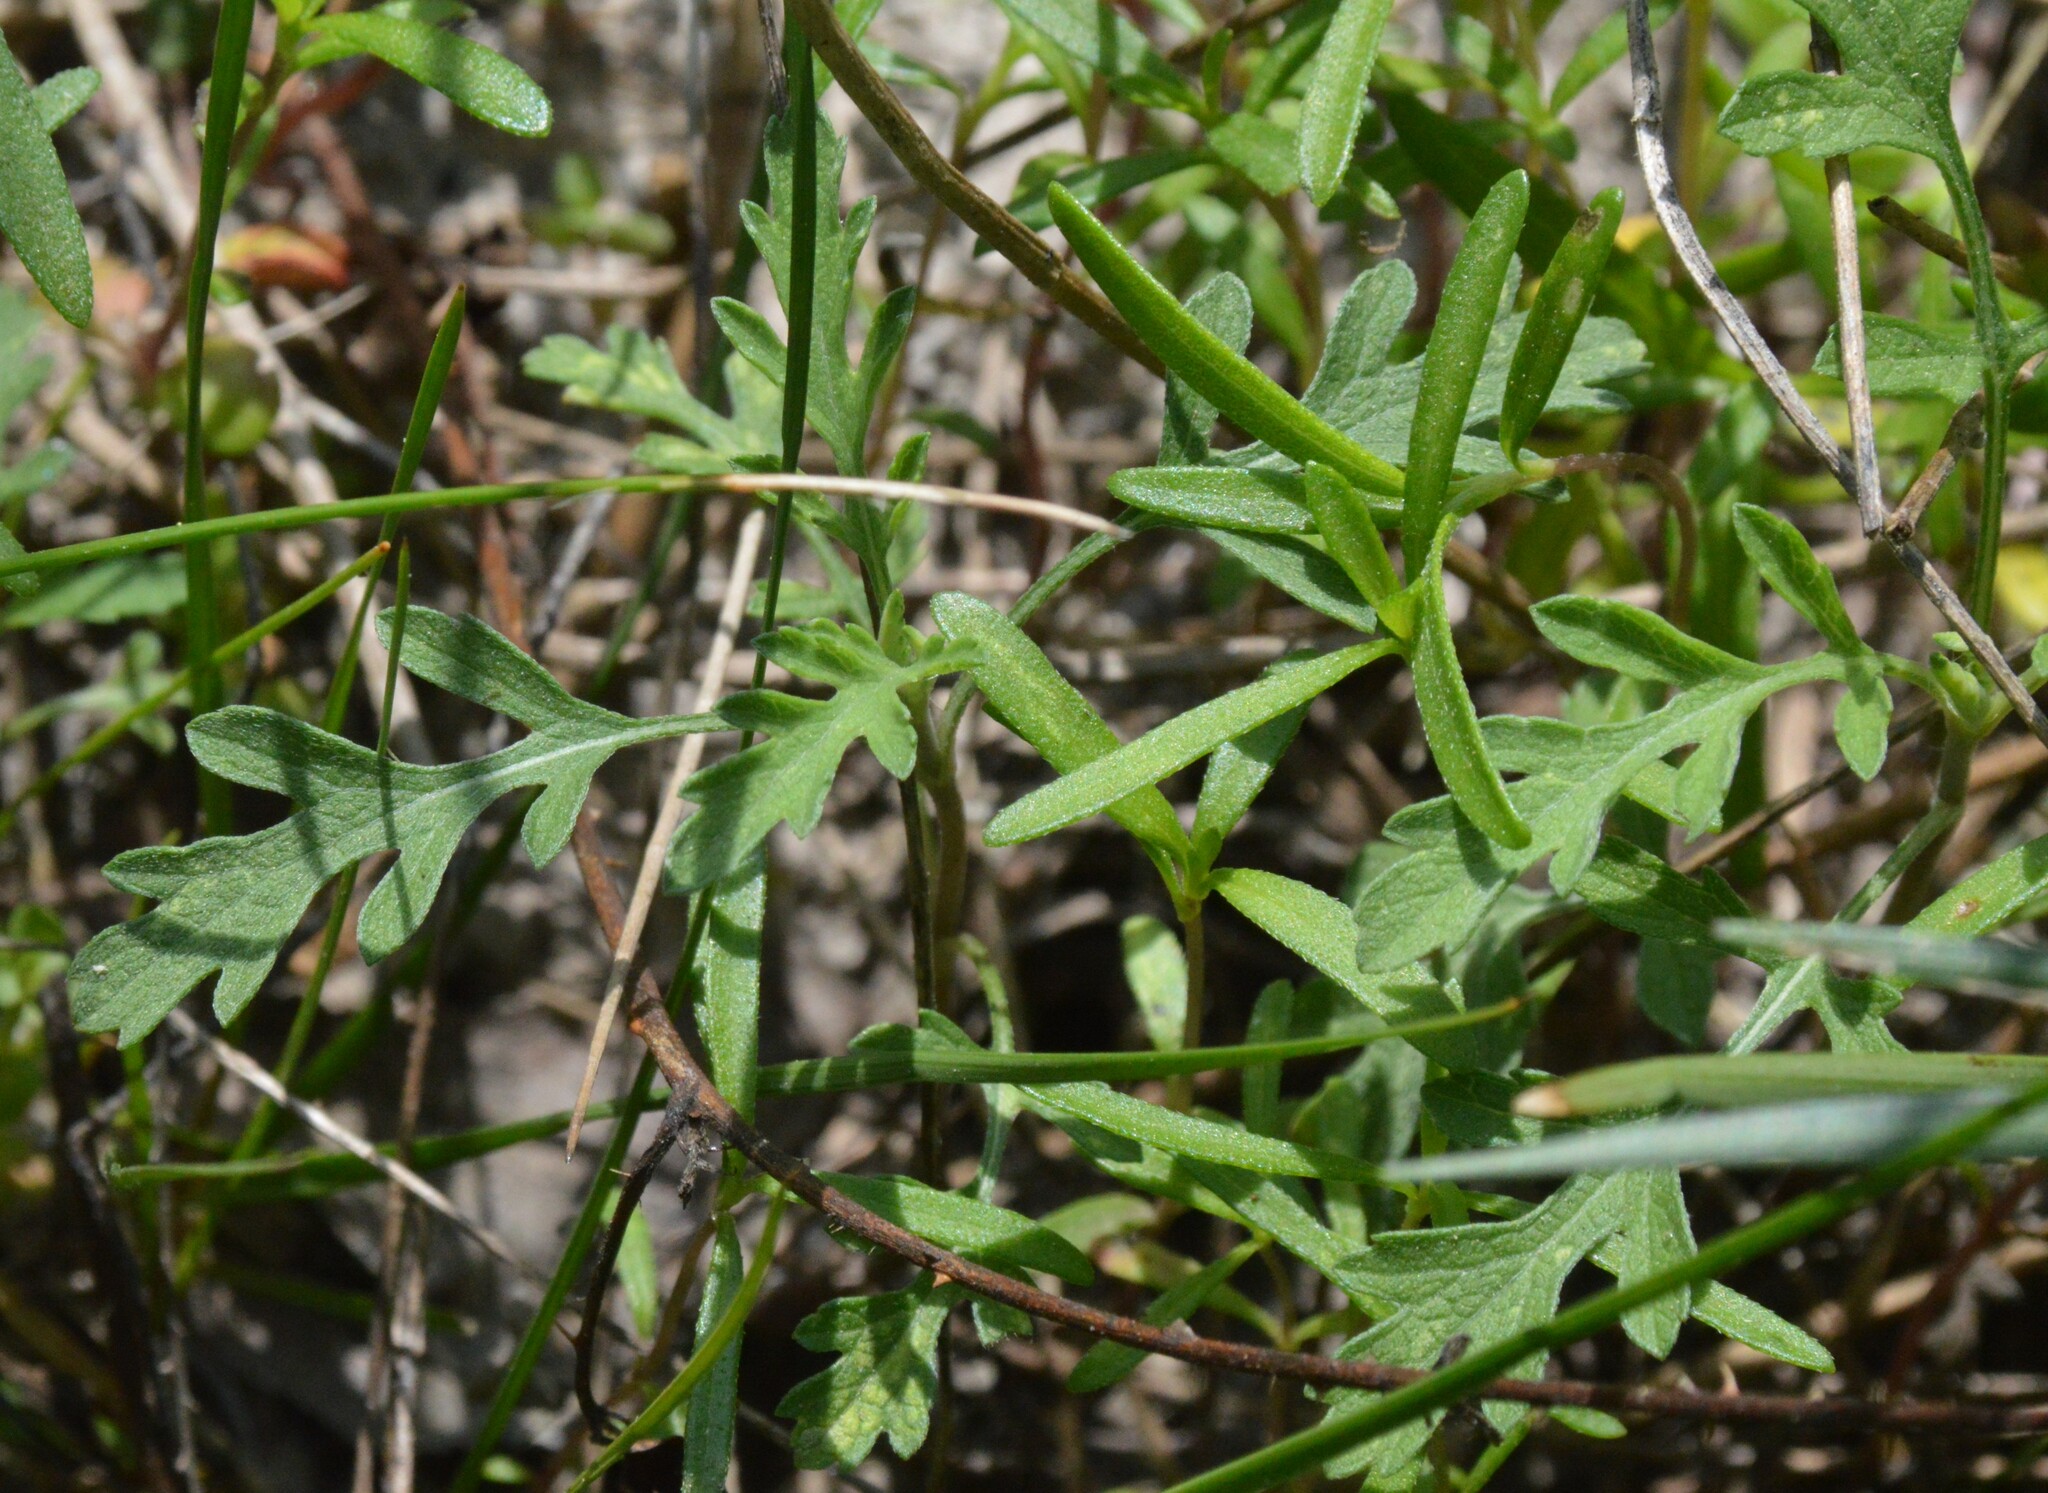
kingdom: Plantae
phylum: Tracheophyta
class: Magnoliopsida
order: Asterales
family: Asteraceae
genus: Ambrosia
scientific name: Ambrosia psilostachya
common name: Perennial ragweed
